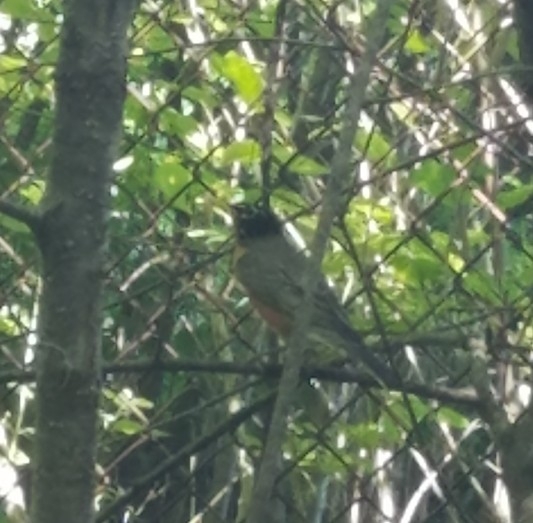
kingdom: Animalia
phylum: Chordata
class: Aves
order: Passeriformes
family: Turdidae
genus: Turdus
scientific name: Turdus migratorius
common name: American robin
